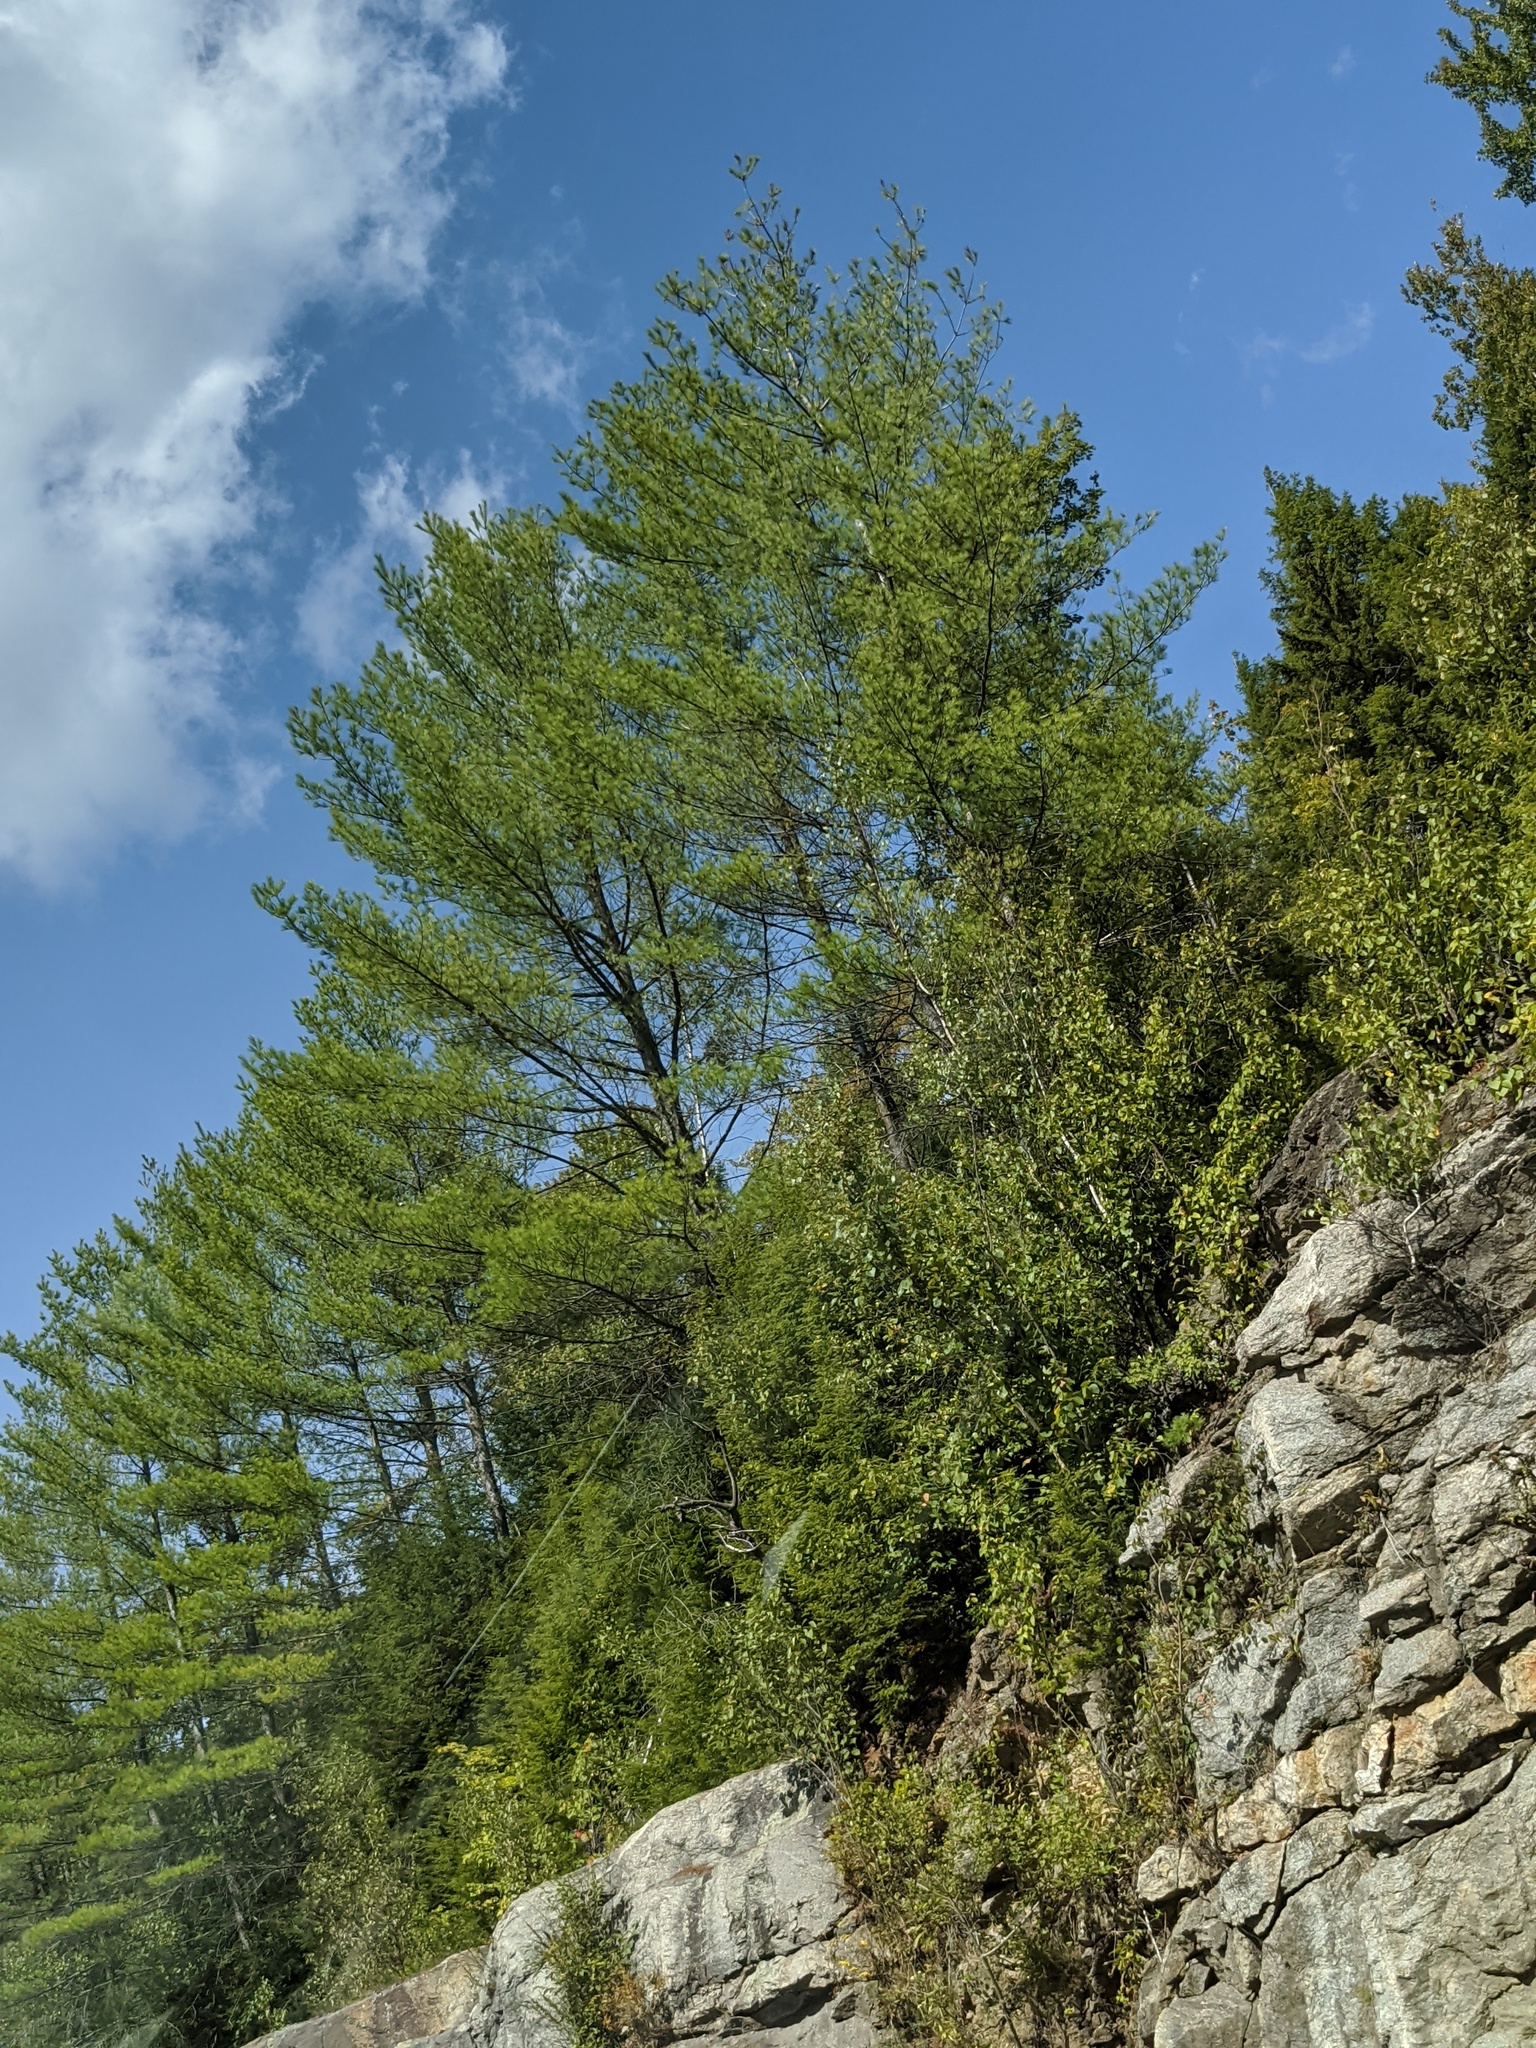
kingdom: Plantae
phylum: Tracheophyta
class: Pinopsida
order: Pinales
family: Pinaceae
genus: Pinus
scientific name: Pinus strobus
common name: Weymouth pine
